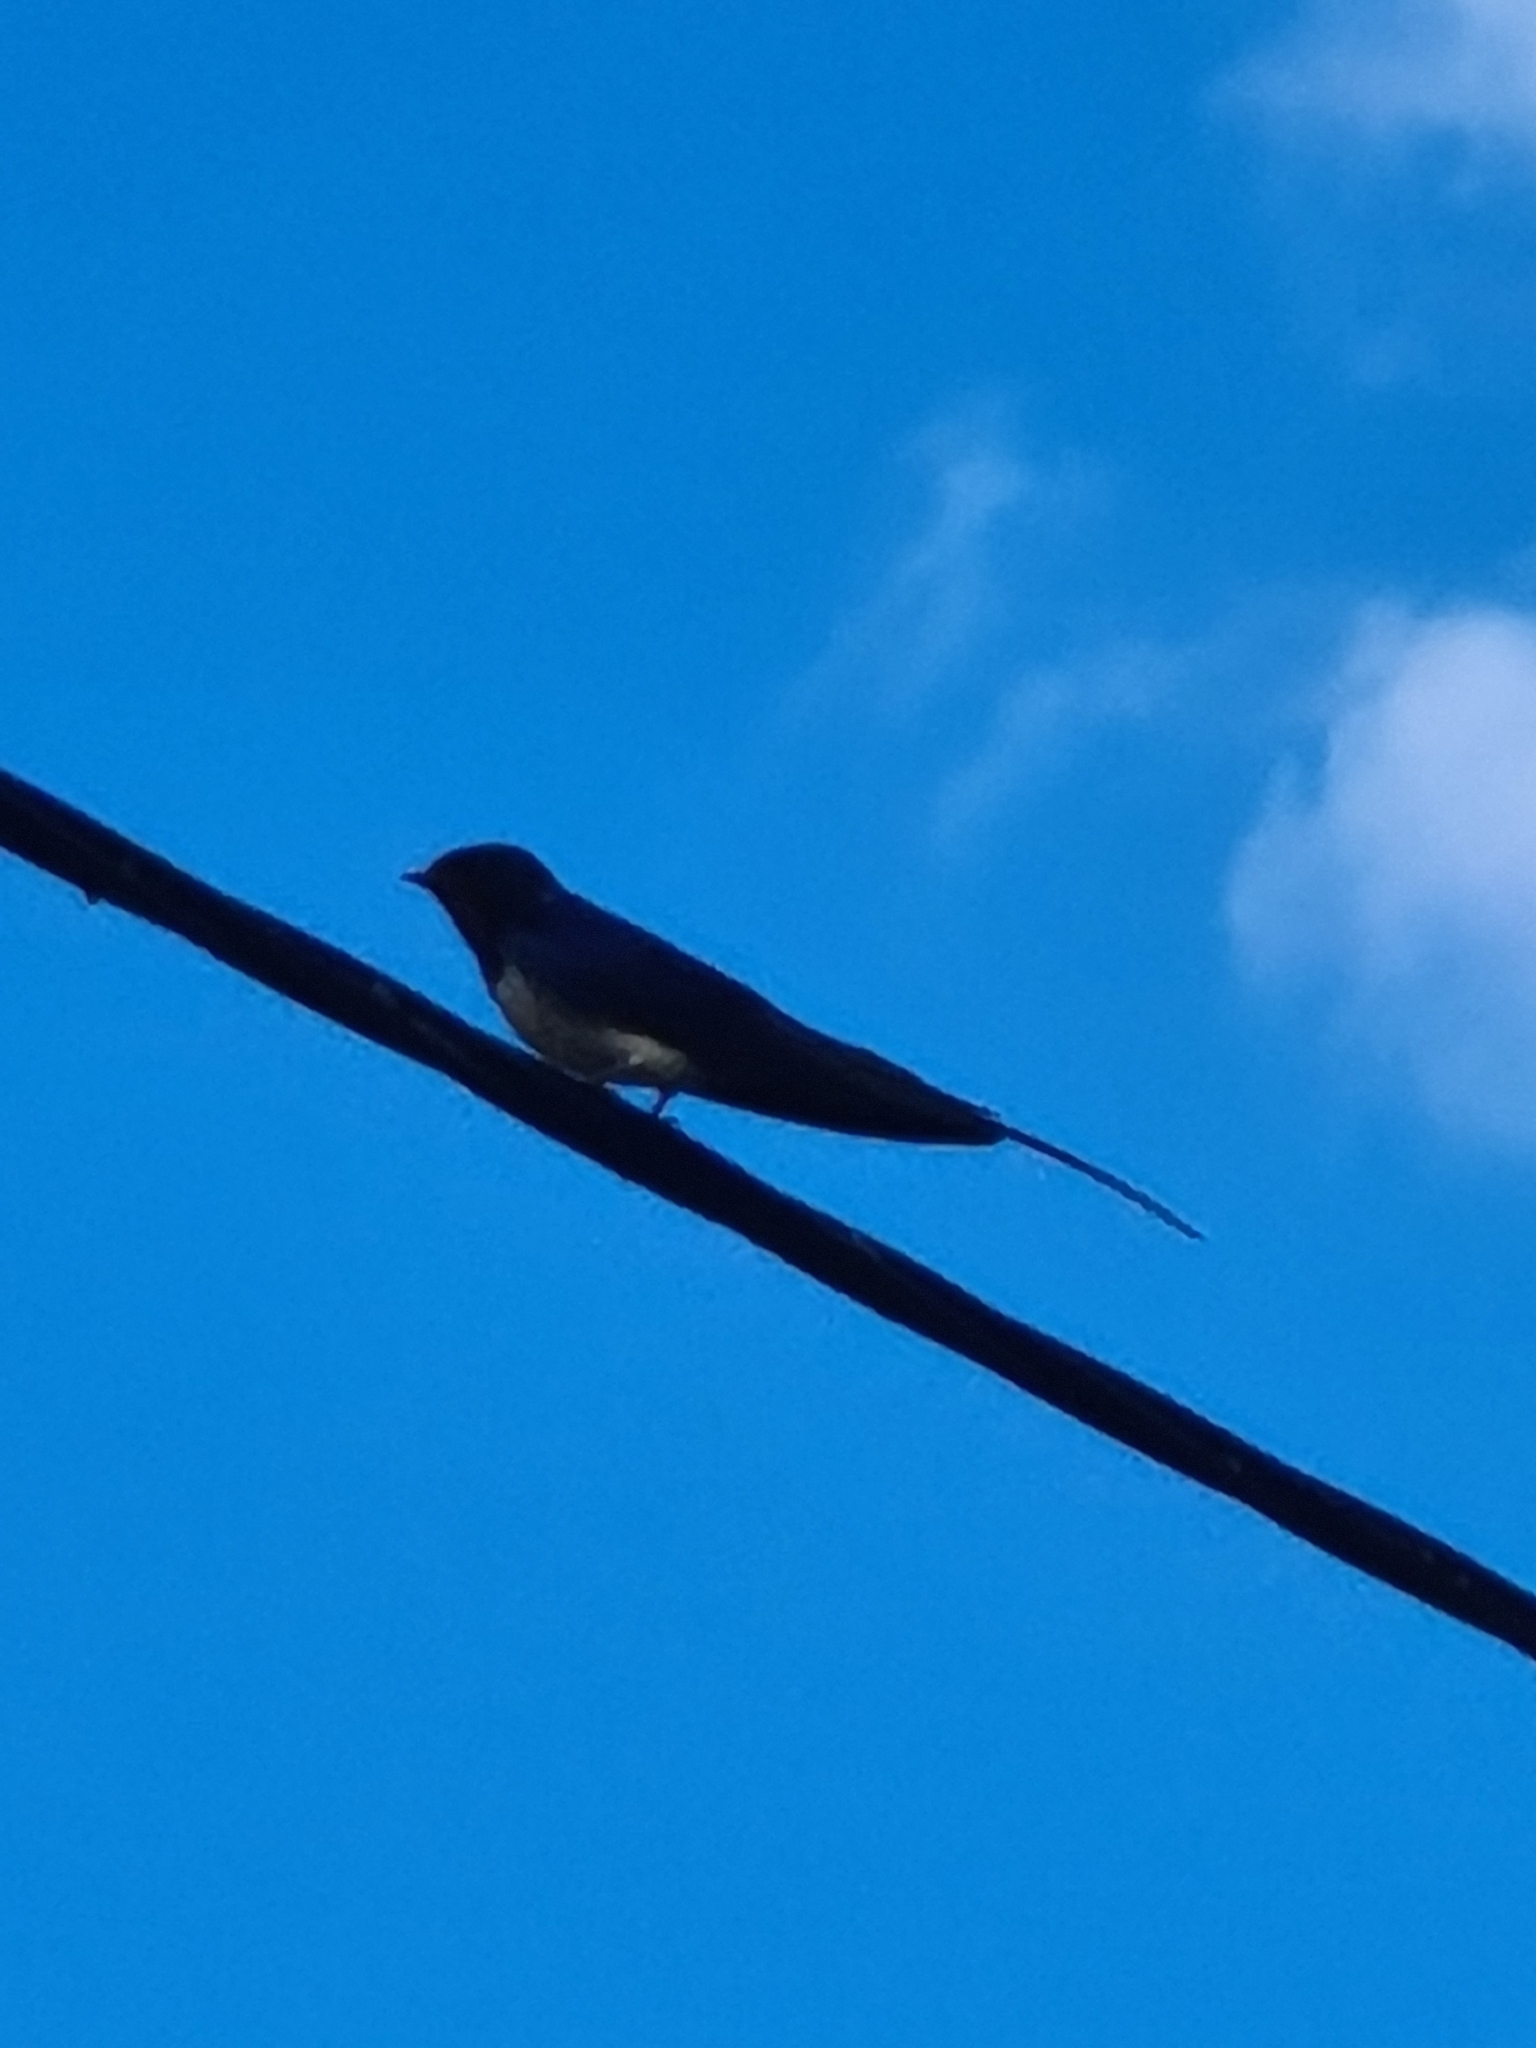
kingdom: Animalia
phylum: Chordata
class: Aves
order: Passeriformes
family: Hirundinidae
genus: Hirundo
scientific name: Hirundo rustica
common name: Barn swallow
